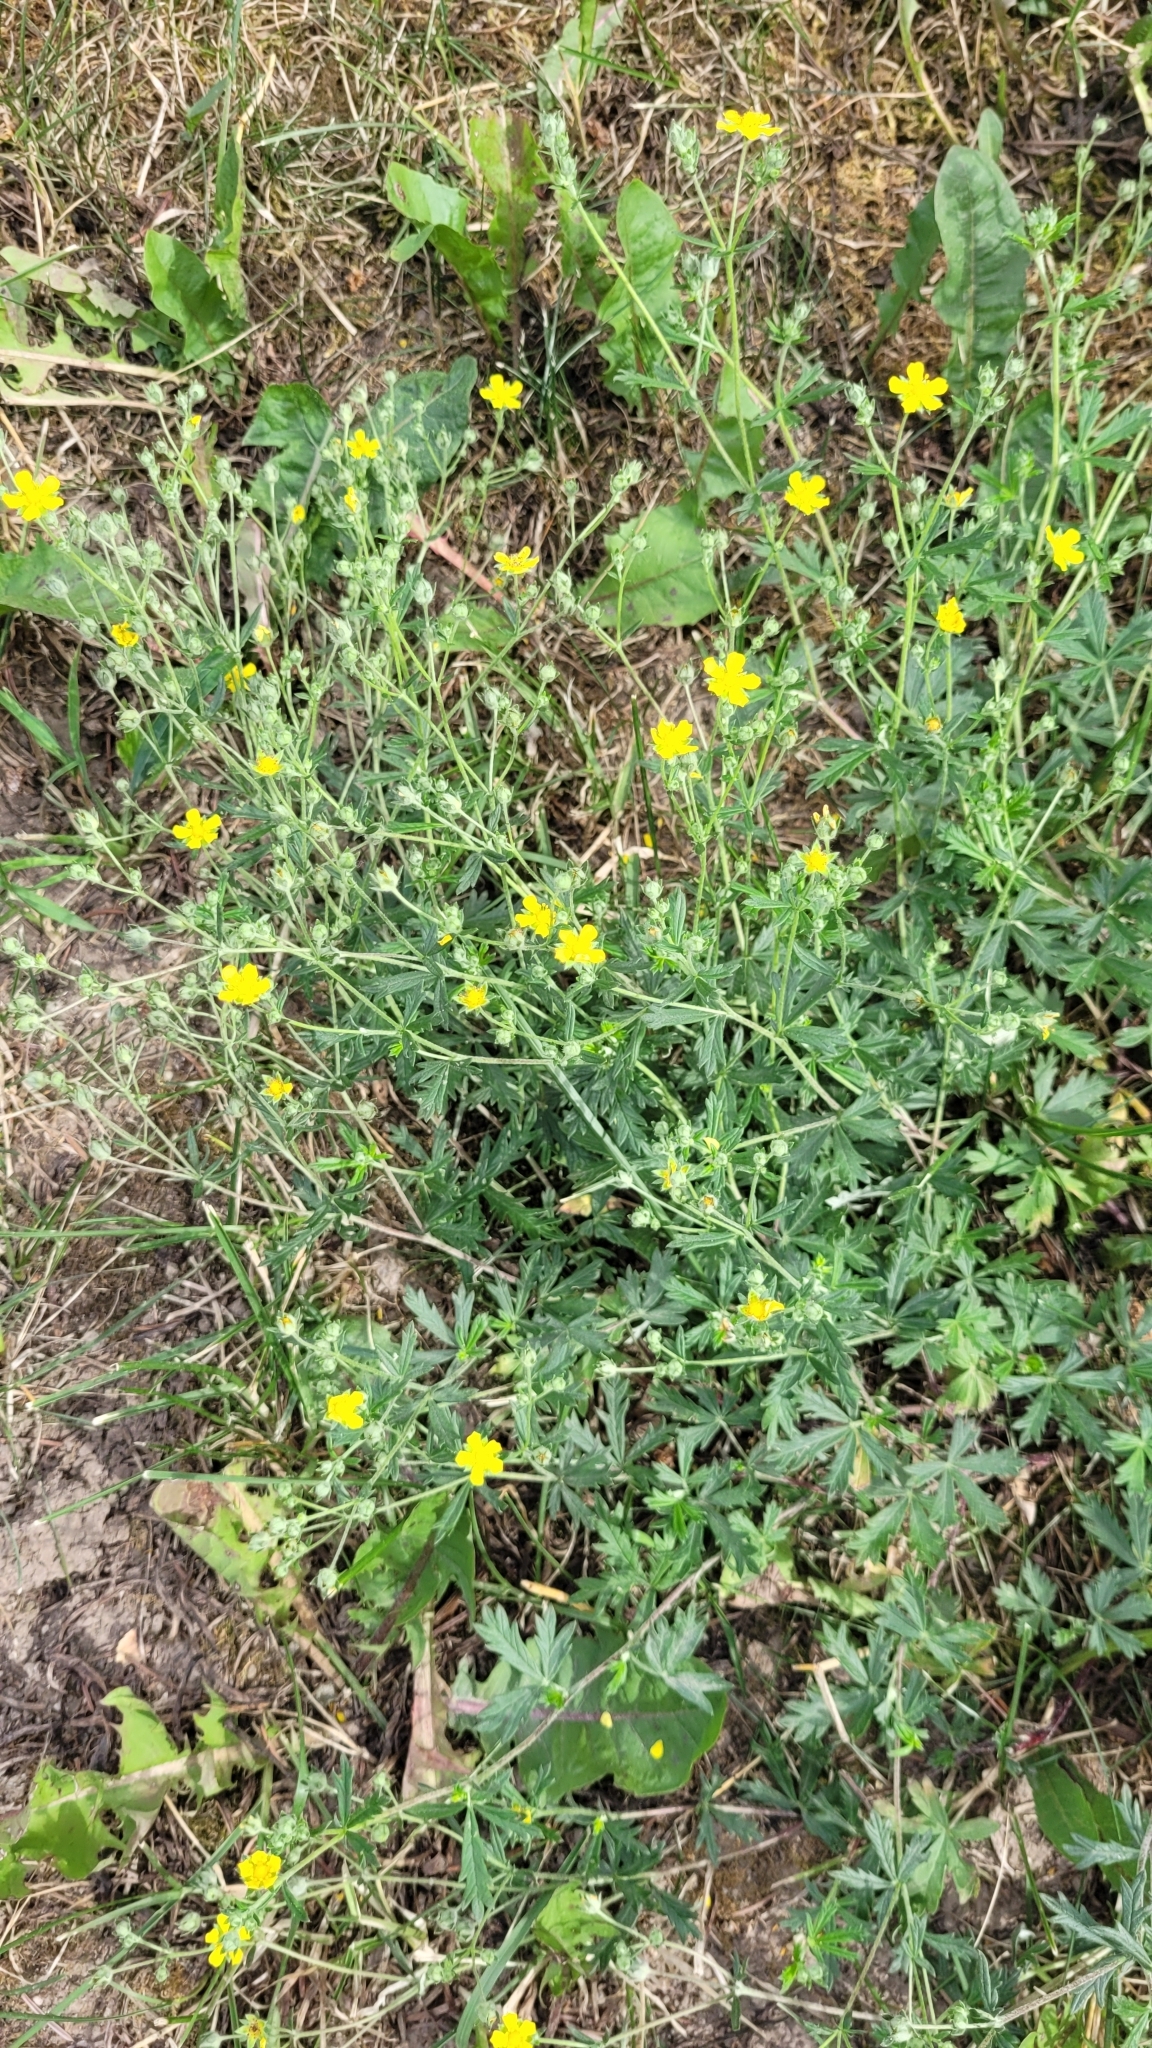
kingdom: Plantae
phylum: Tracheophyta
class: Magnoliopsida
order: Rosales
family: Rosaceae
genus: Potentilla
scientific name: Potentilla argentea
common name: Hoary cinquefoil
